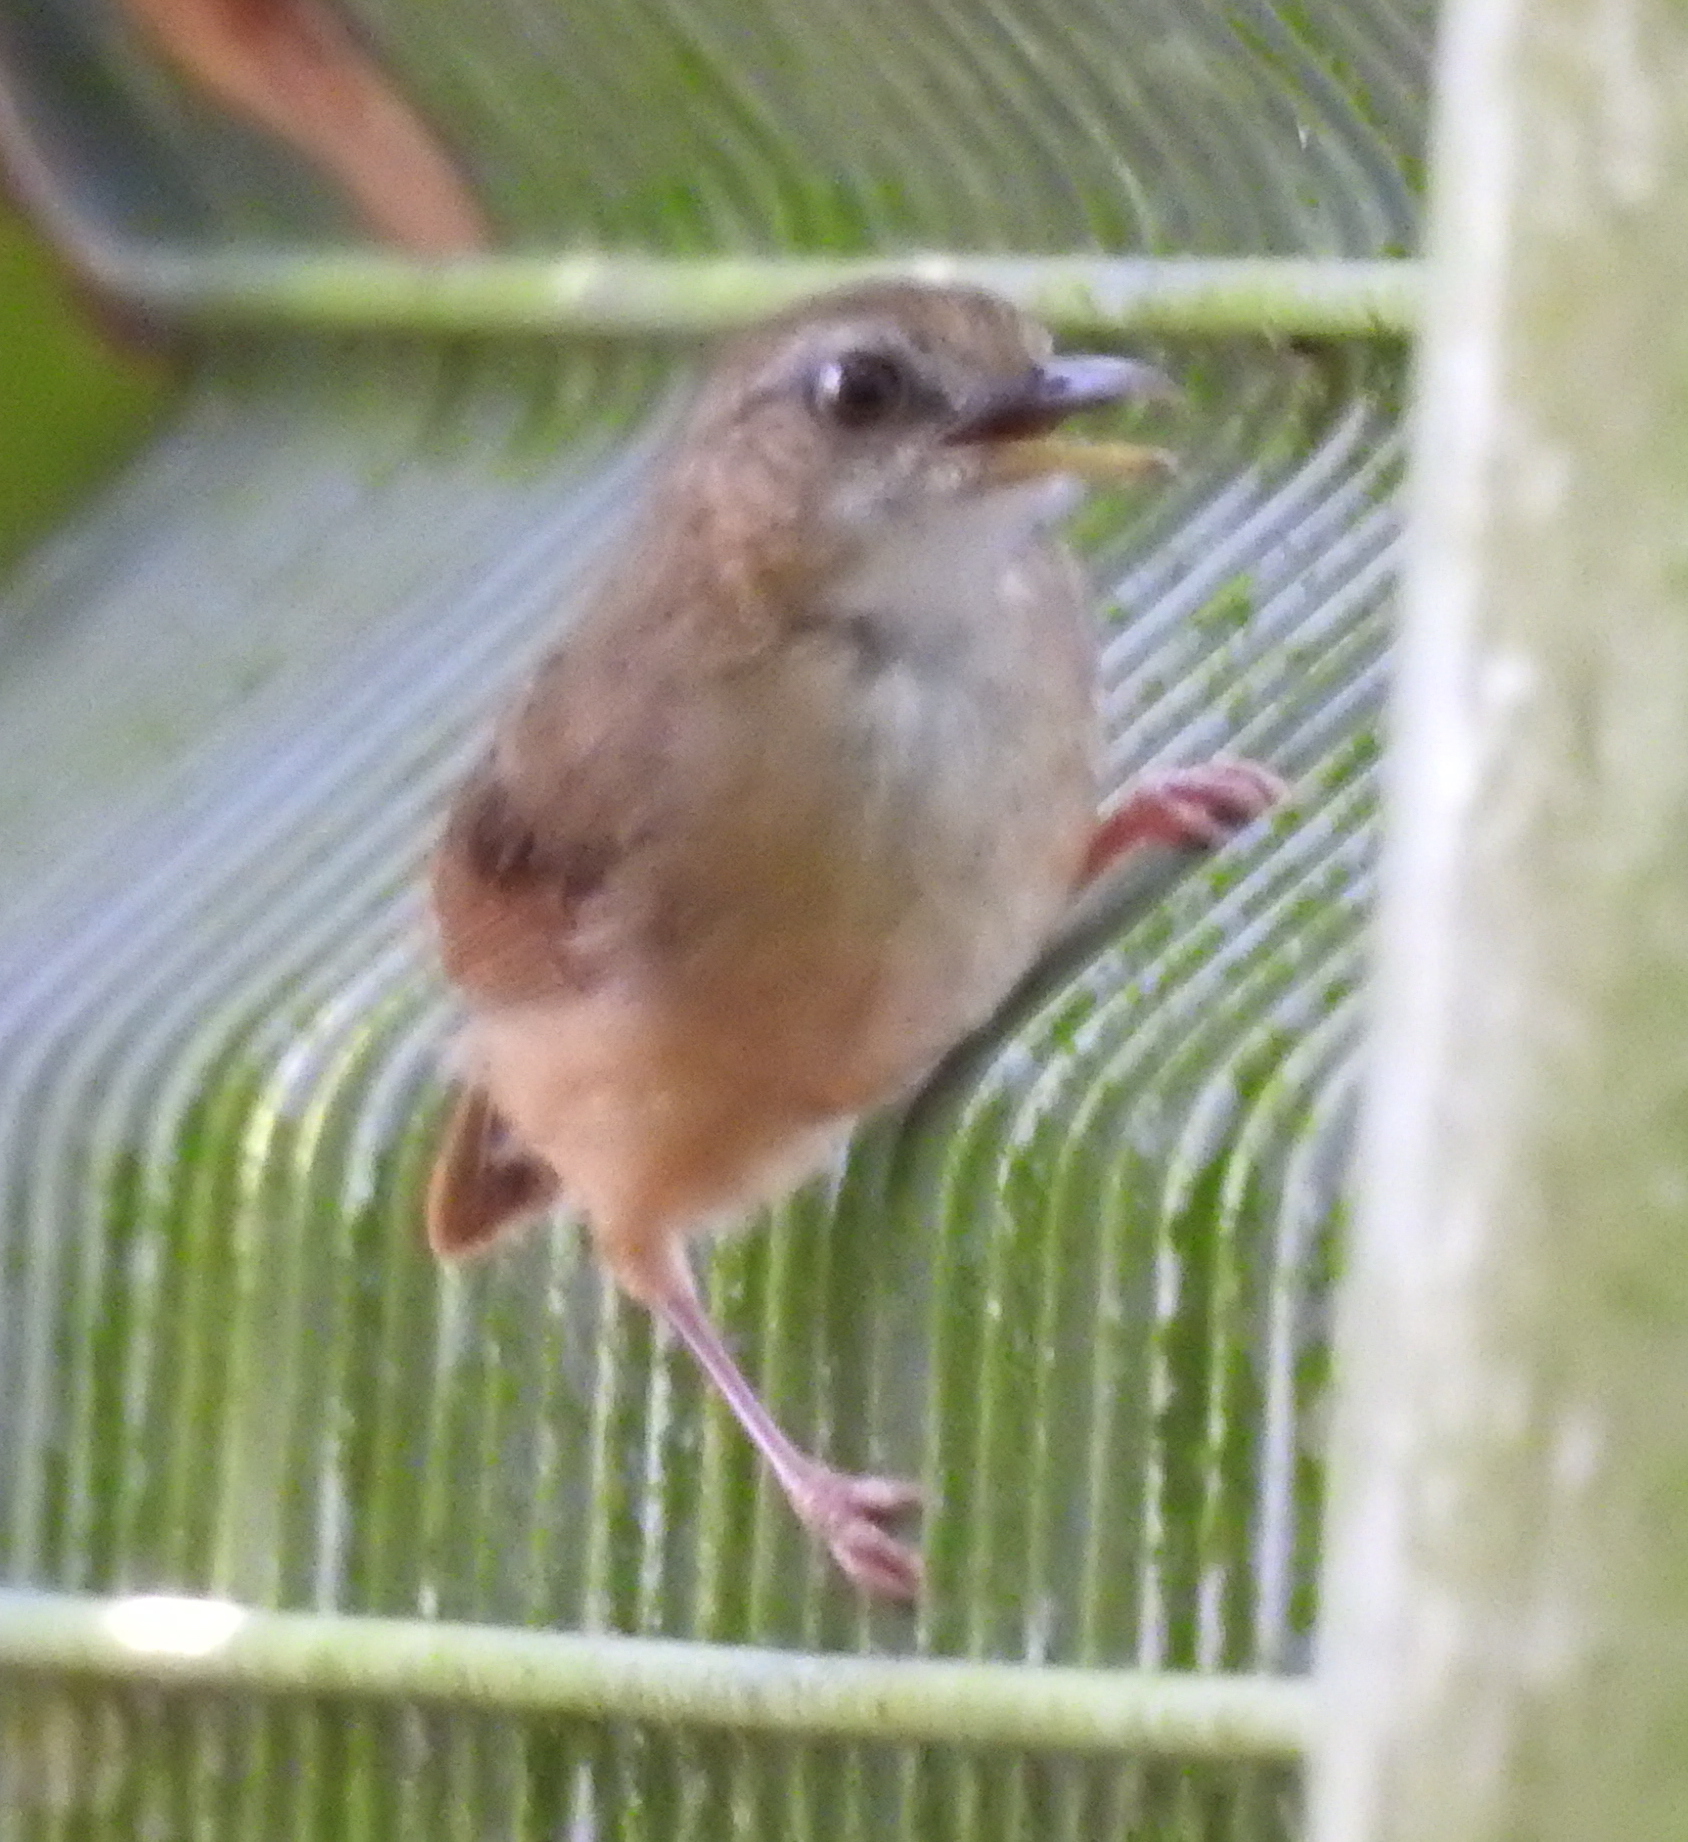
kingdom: Animalia
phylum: Chordata
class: Aves
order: Passeriformes
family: Pellorneidae
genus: Malacocincla
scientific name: Malacocincla abbotti
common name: Abbott's babbler
